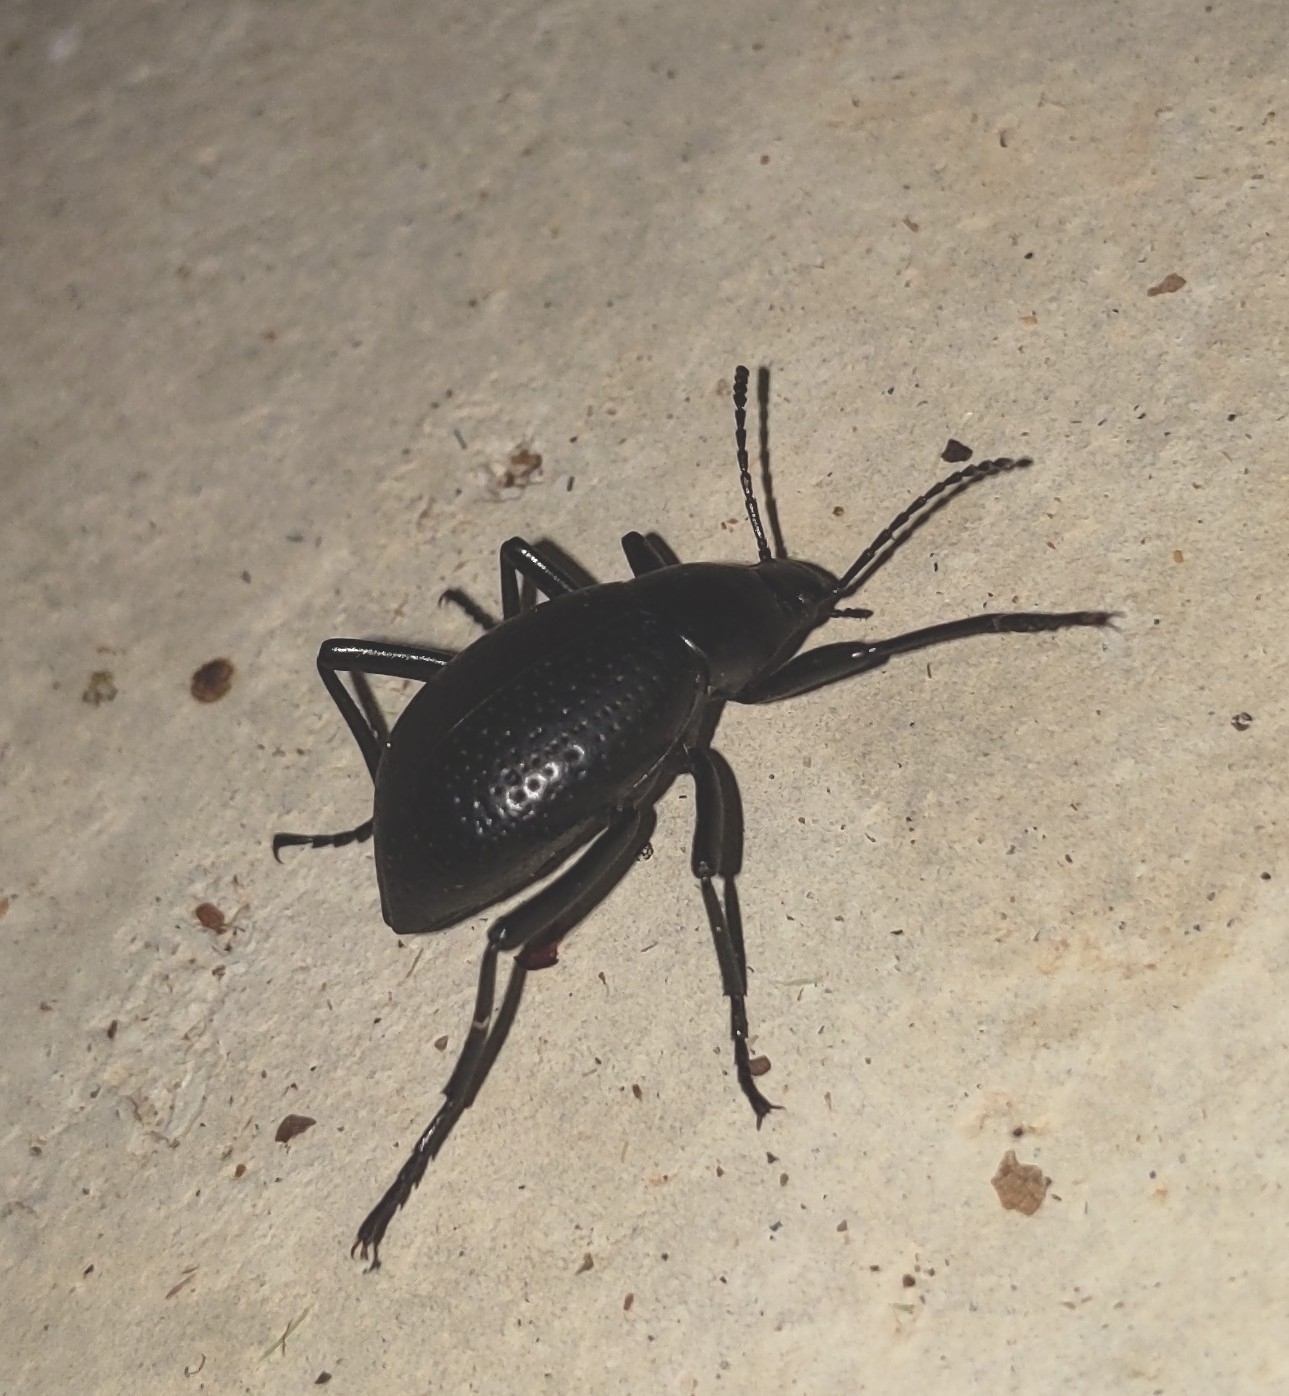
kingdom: Animalia
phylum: Arthropoda
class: Insecta
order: Coleoptera
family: Tenebrionidae
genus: Eleodes
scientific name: Eleodes goryi
